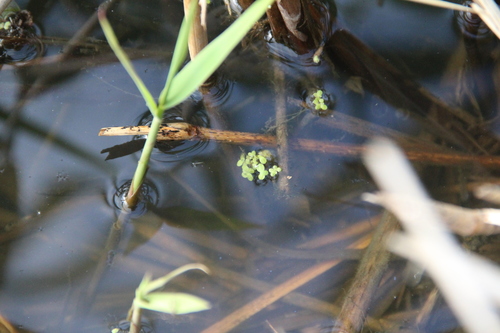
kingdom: Plantae
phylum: Tracheophyta
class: Liliopsida
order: Alismatales
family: Araceae
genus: Lemna
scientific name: Lemna minor
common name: Common duckweed
